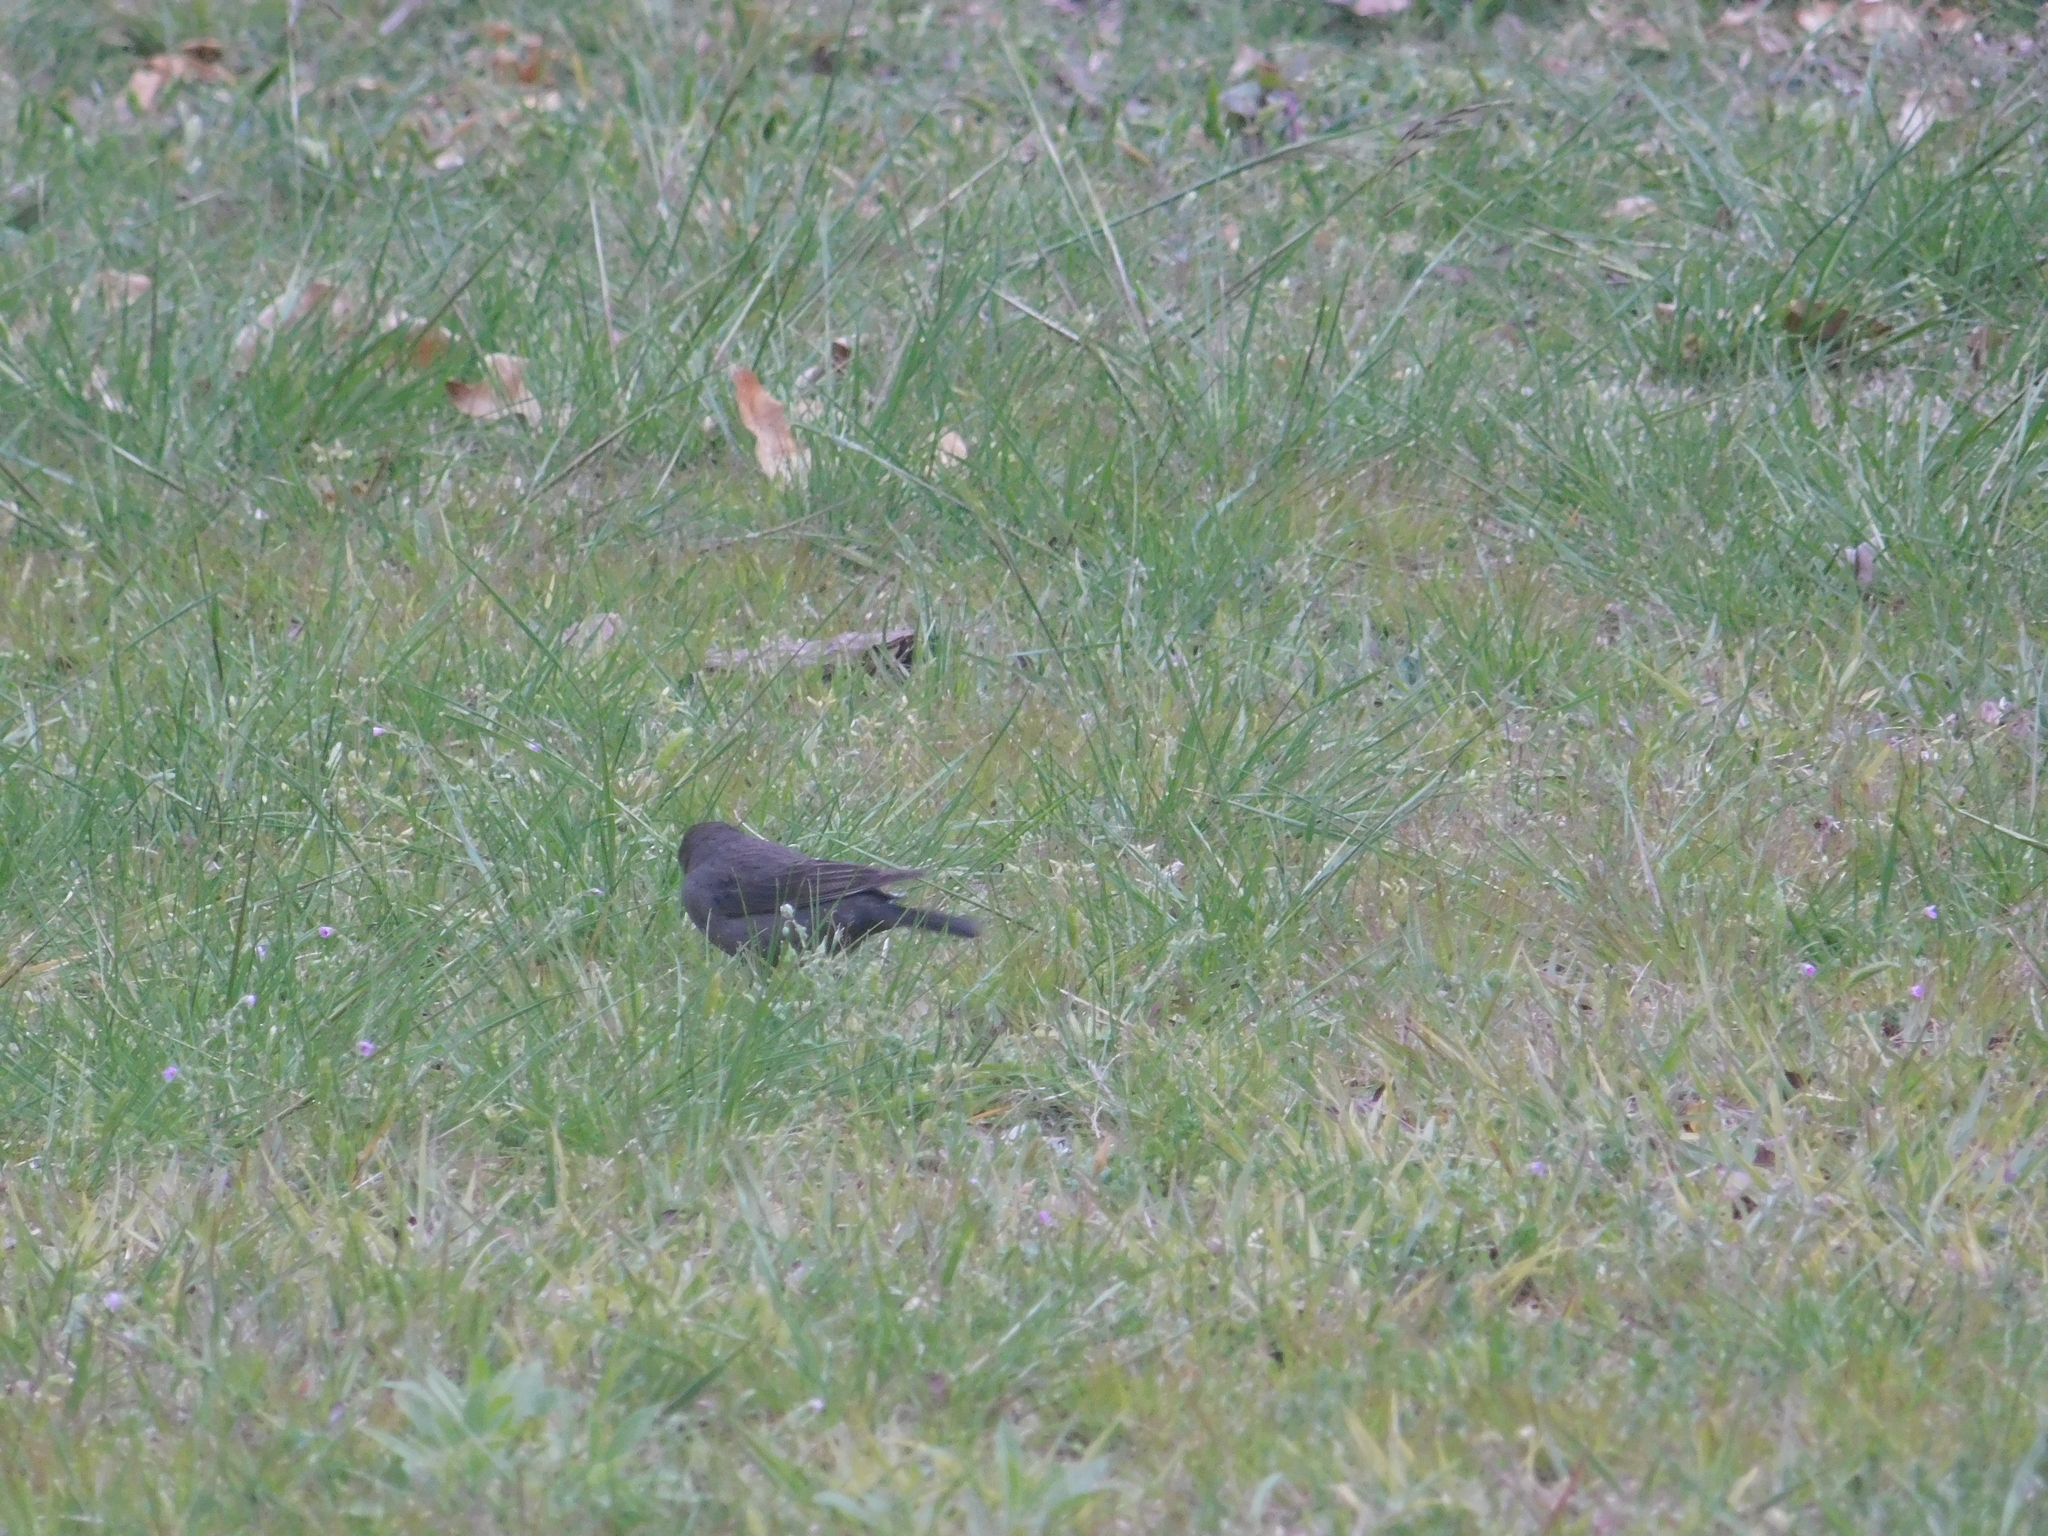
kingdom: Animalia
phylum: Chordata
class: Aves
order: Passeriformes
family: Icteridae
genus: Molothrus
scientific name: Molothrus bonariensis
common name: Shiny cowbird
